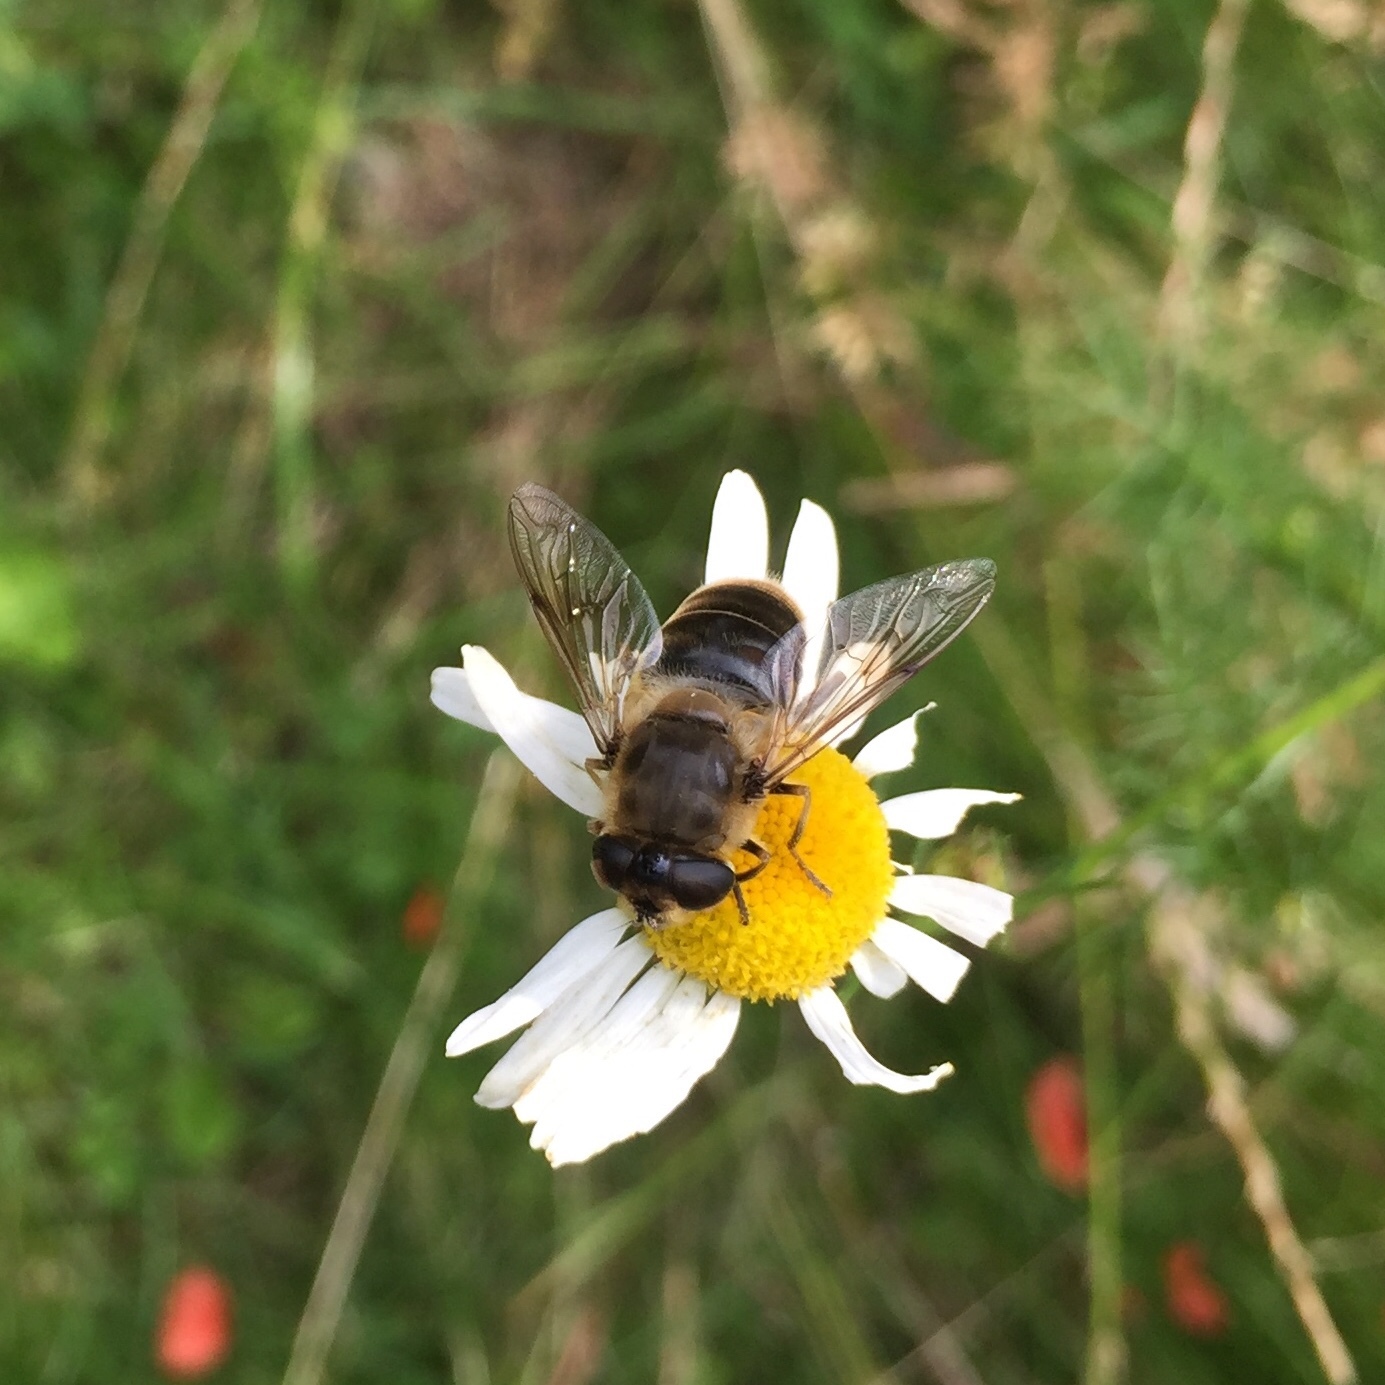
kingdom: Animalia
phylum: Arthropoda
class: Insecta
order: Diptera
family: Syrphidae
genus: Eristalis
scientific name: Eristalis tenax
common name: Drone fly
